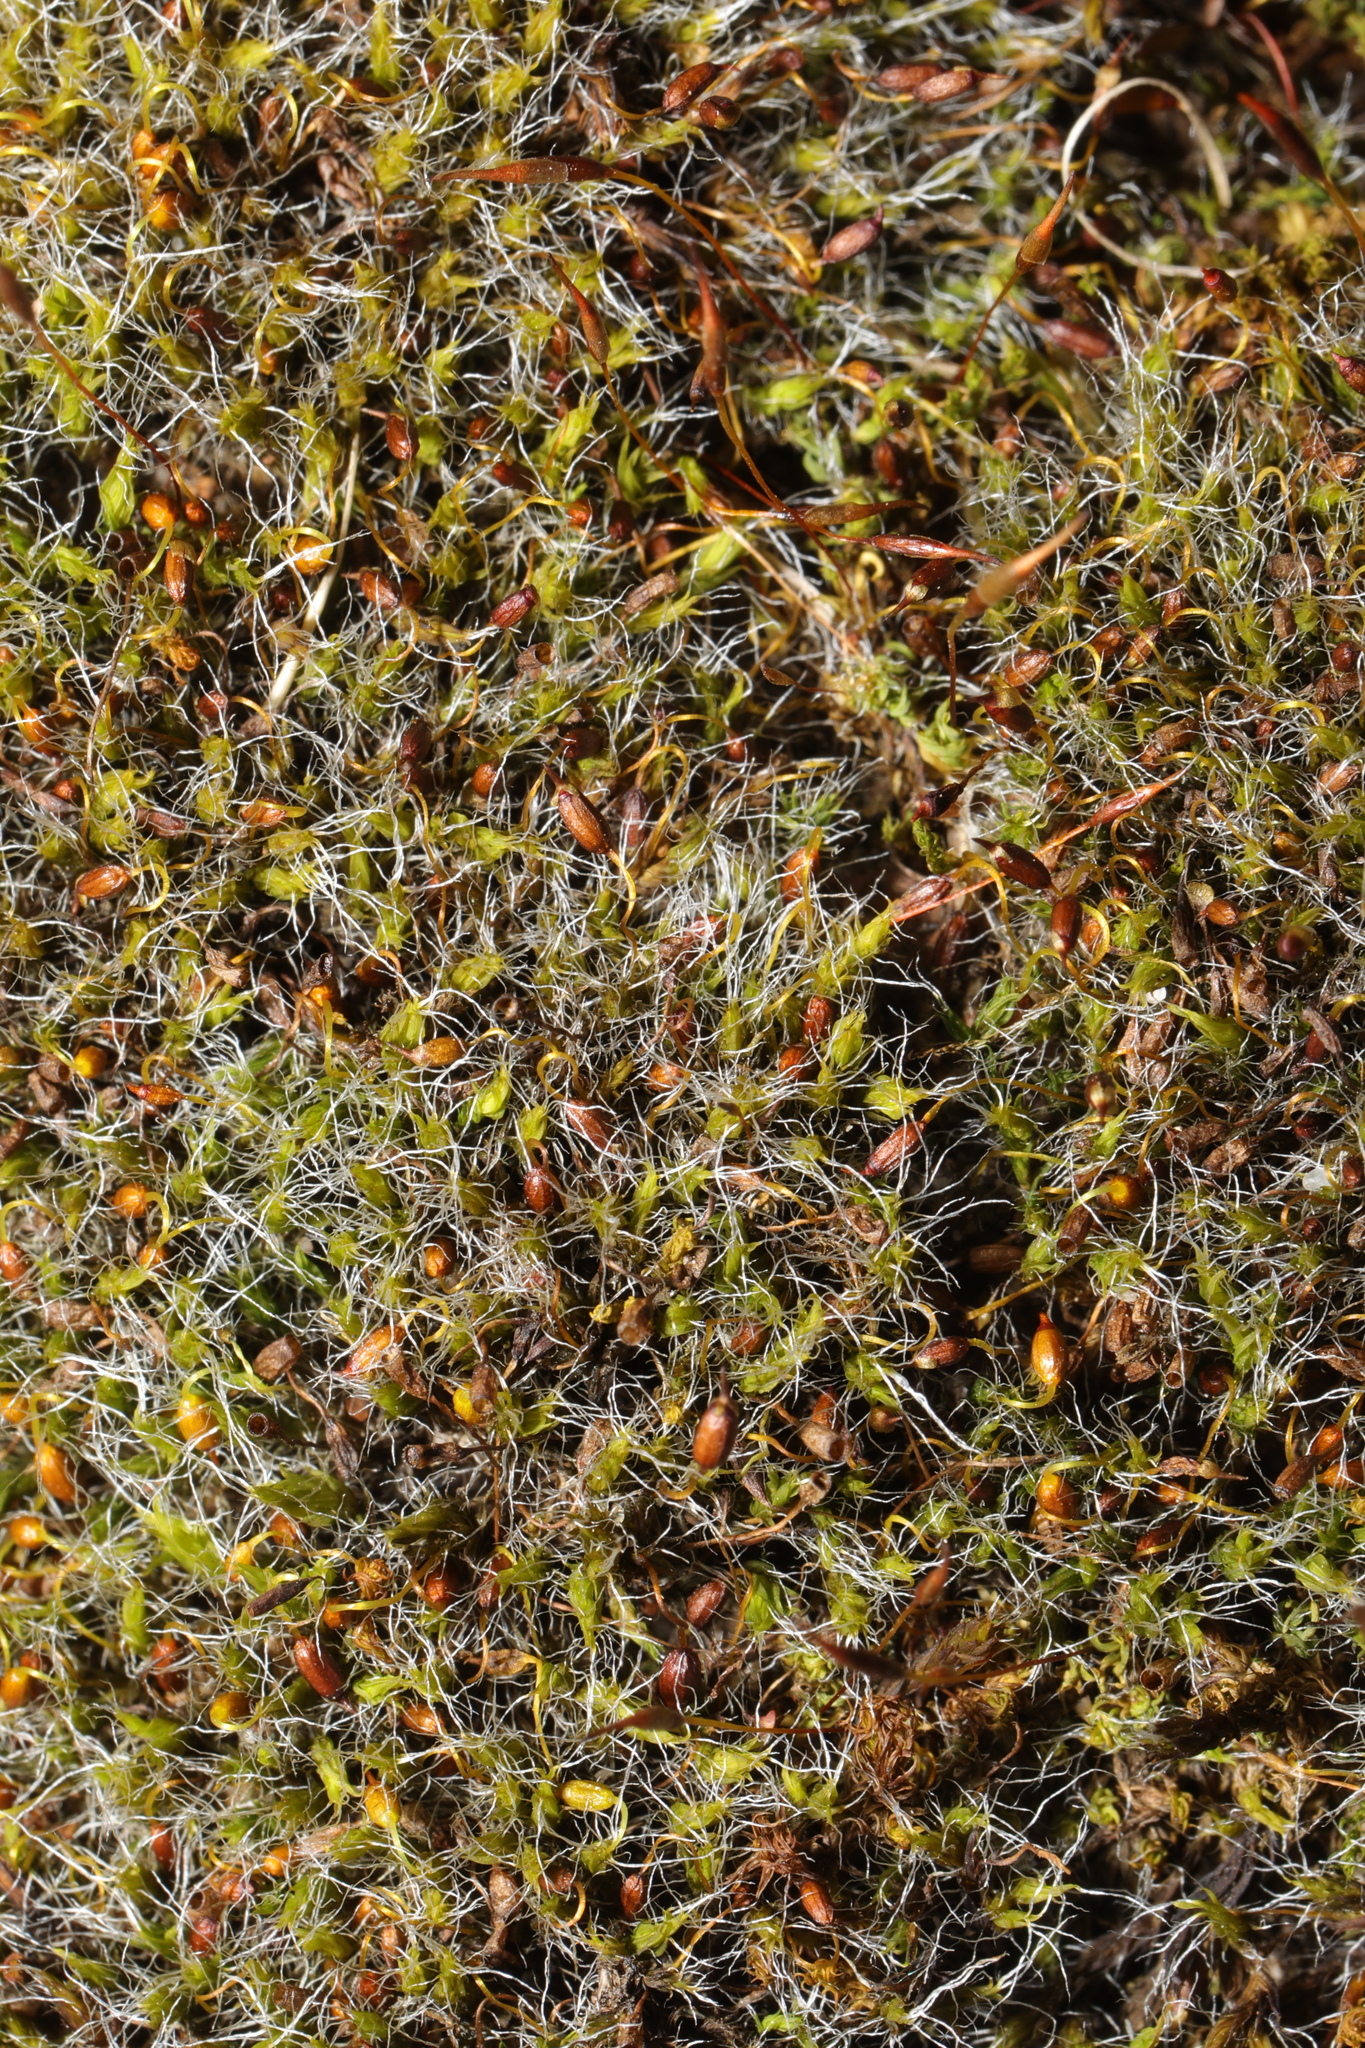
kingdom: Plantae
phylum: Bryophyta
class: Bryopsida
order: Grimmiales
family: Grimmiaceae
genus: Grimmia
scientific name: Grimmia pulvinata
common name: Grey-cushioned grimmia
